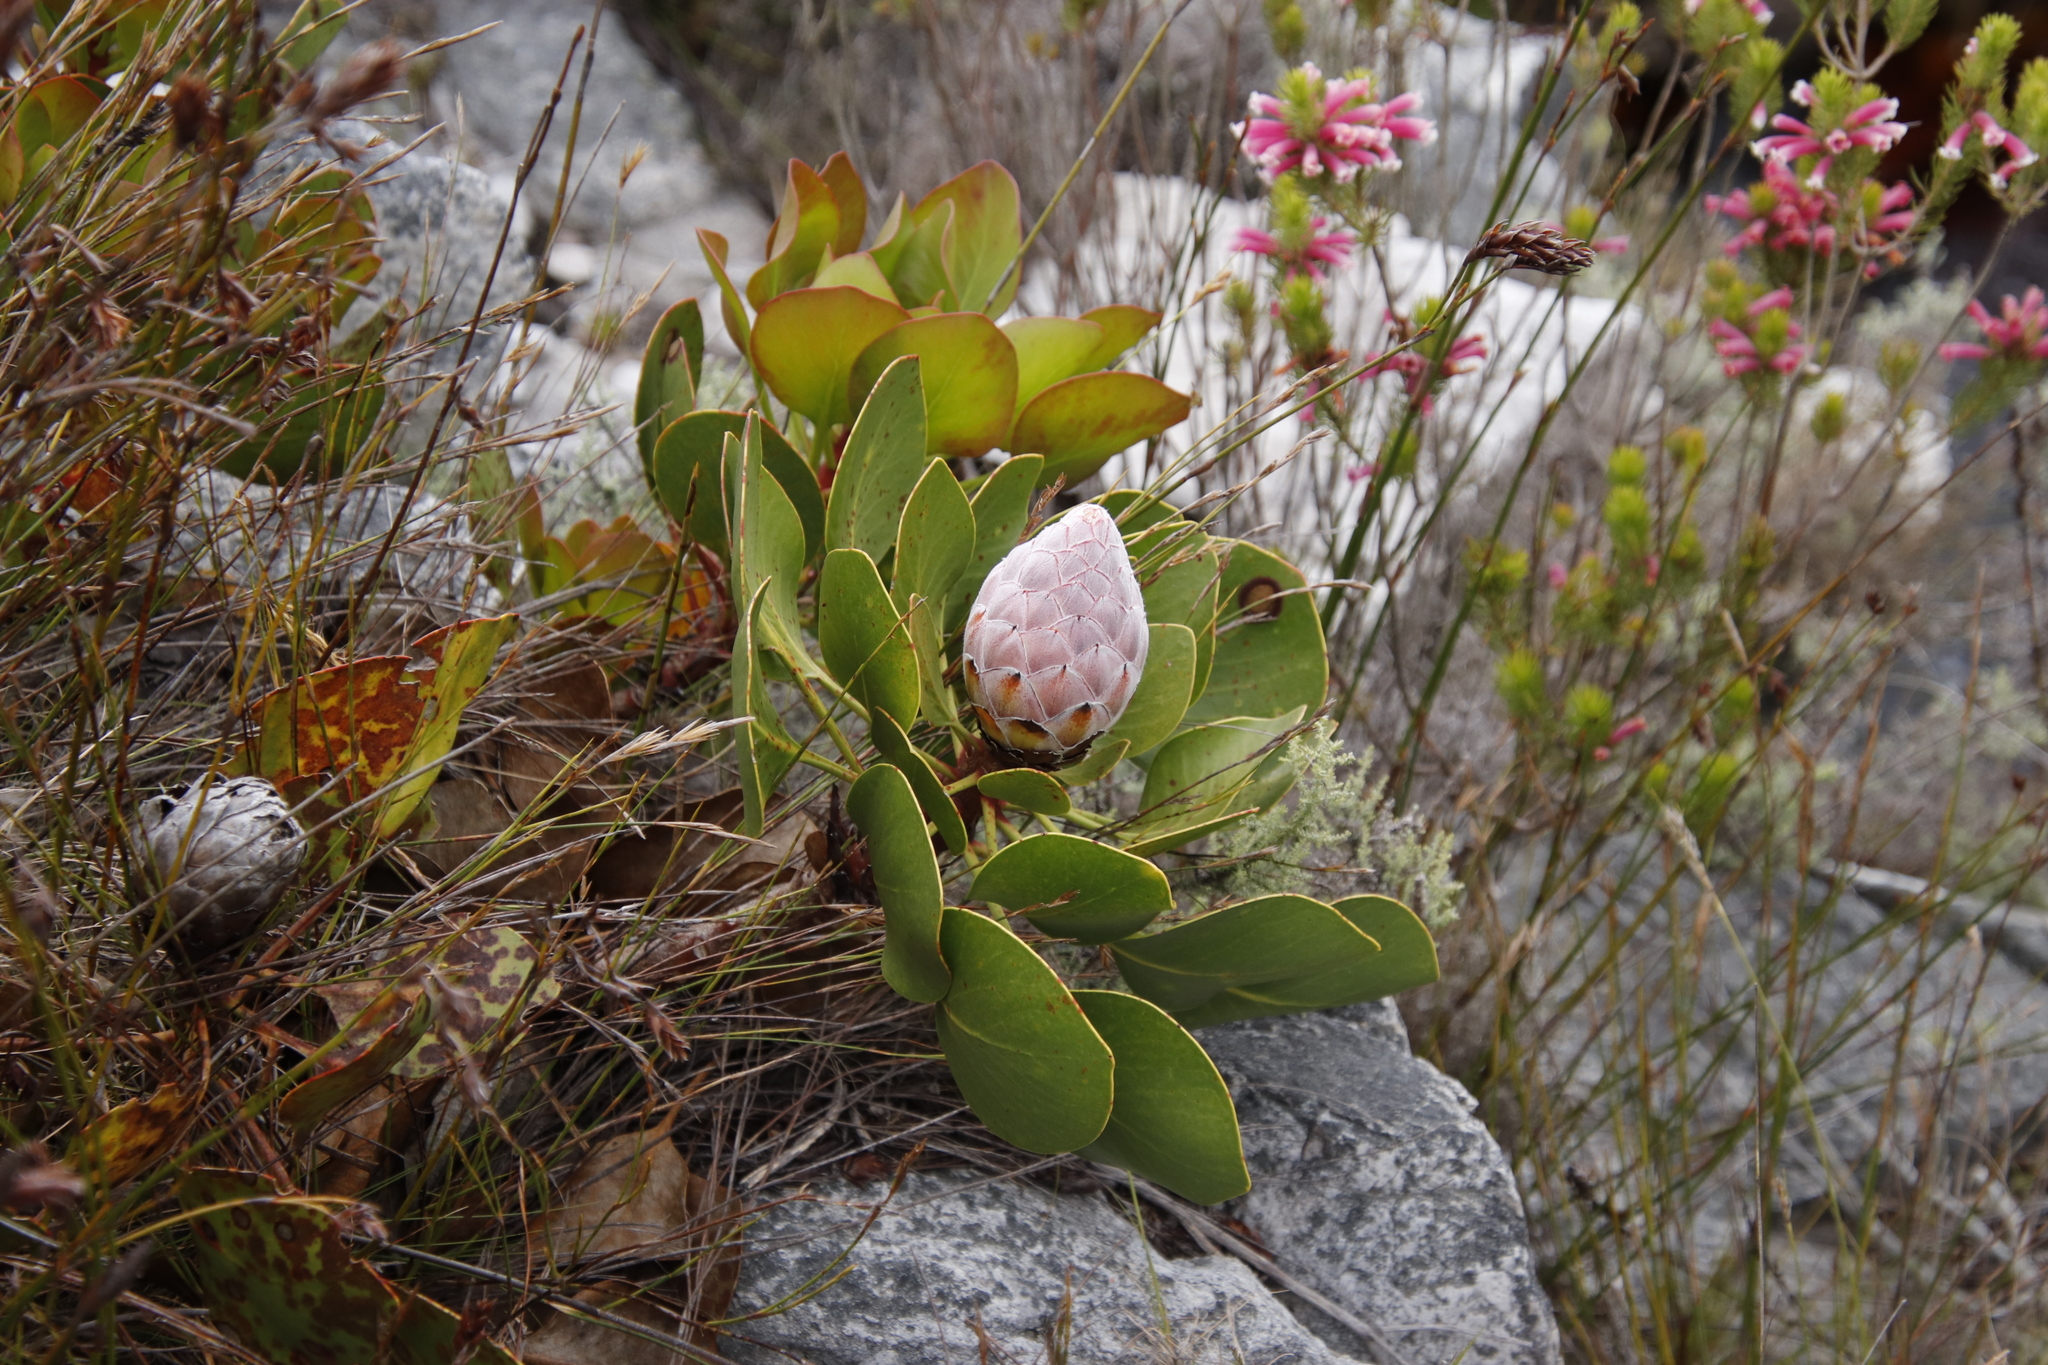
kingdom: Plantae
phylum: Tracheophyta
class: Magnoliopsida
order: Proteales
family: Proteaceae
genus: Protea
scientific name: Protea cynaroides
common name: King protea
